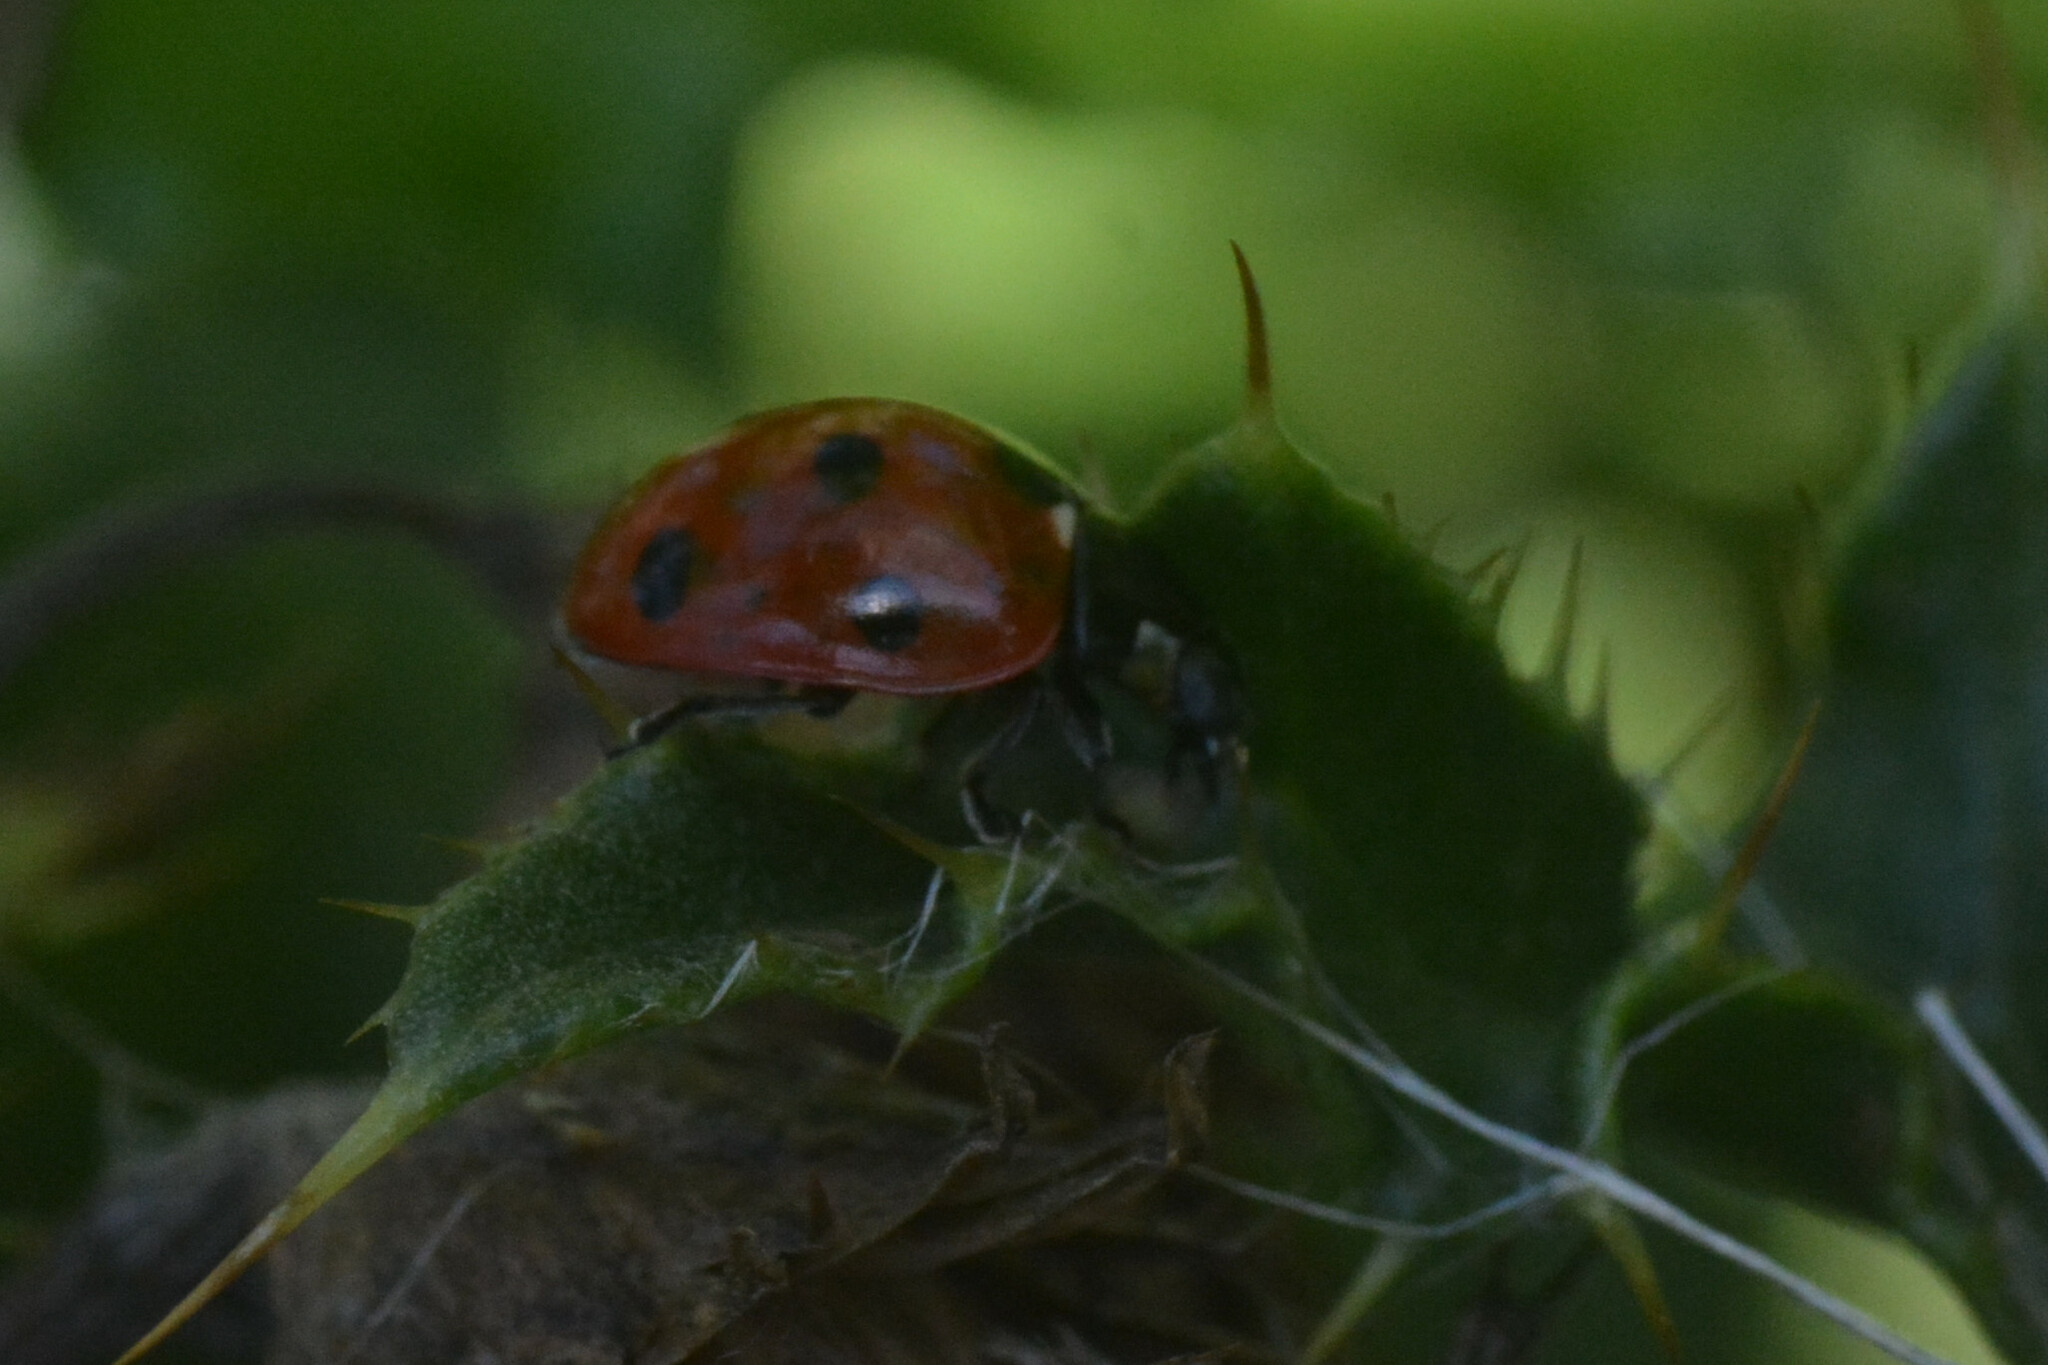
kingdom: Animalia
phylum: Arthropoda
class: Insecta
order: Coleoptera
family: Coccinellidae
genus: Coccinella
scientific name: Coccinella septempunctata
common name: Sevenspotted lady beetle
